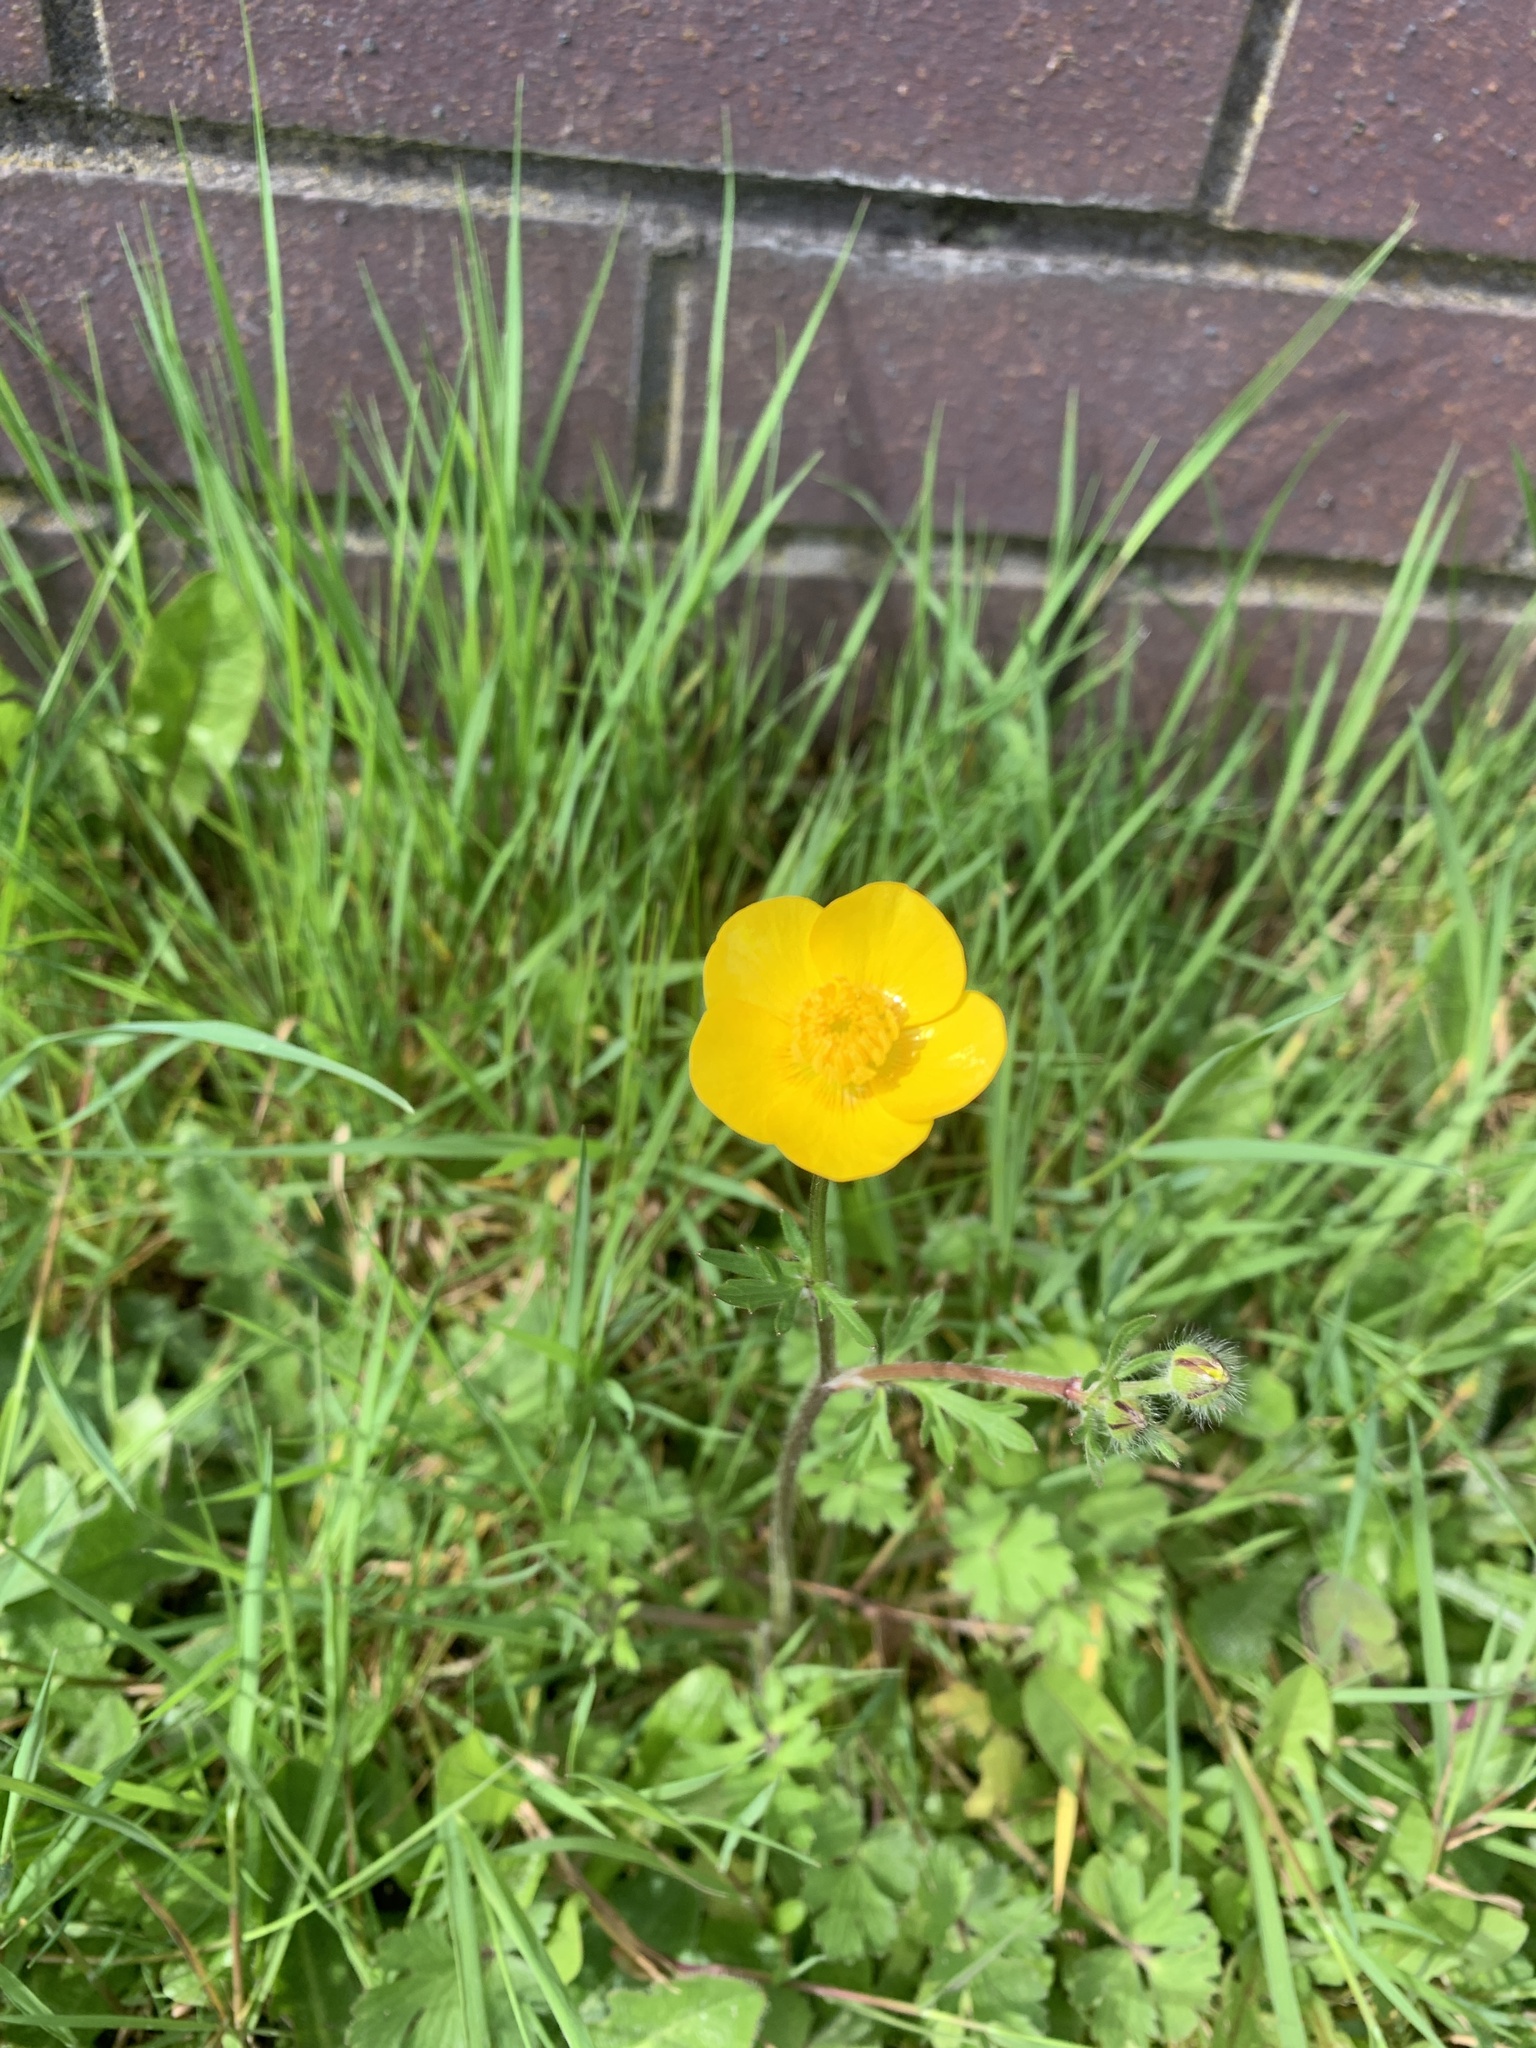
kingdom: Plantae
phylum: Tracheophyta
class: Magnoliopsida
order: Ranunculales
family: Ranunculaceae
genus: Ranunculus
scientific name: Ranunculus bulbosus
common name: Bulbous buttercup
